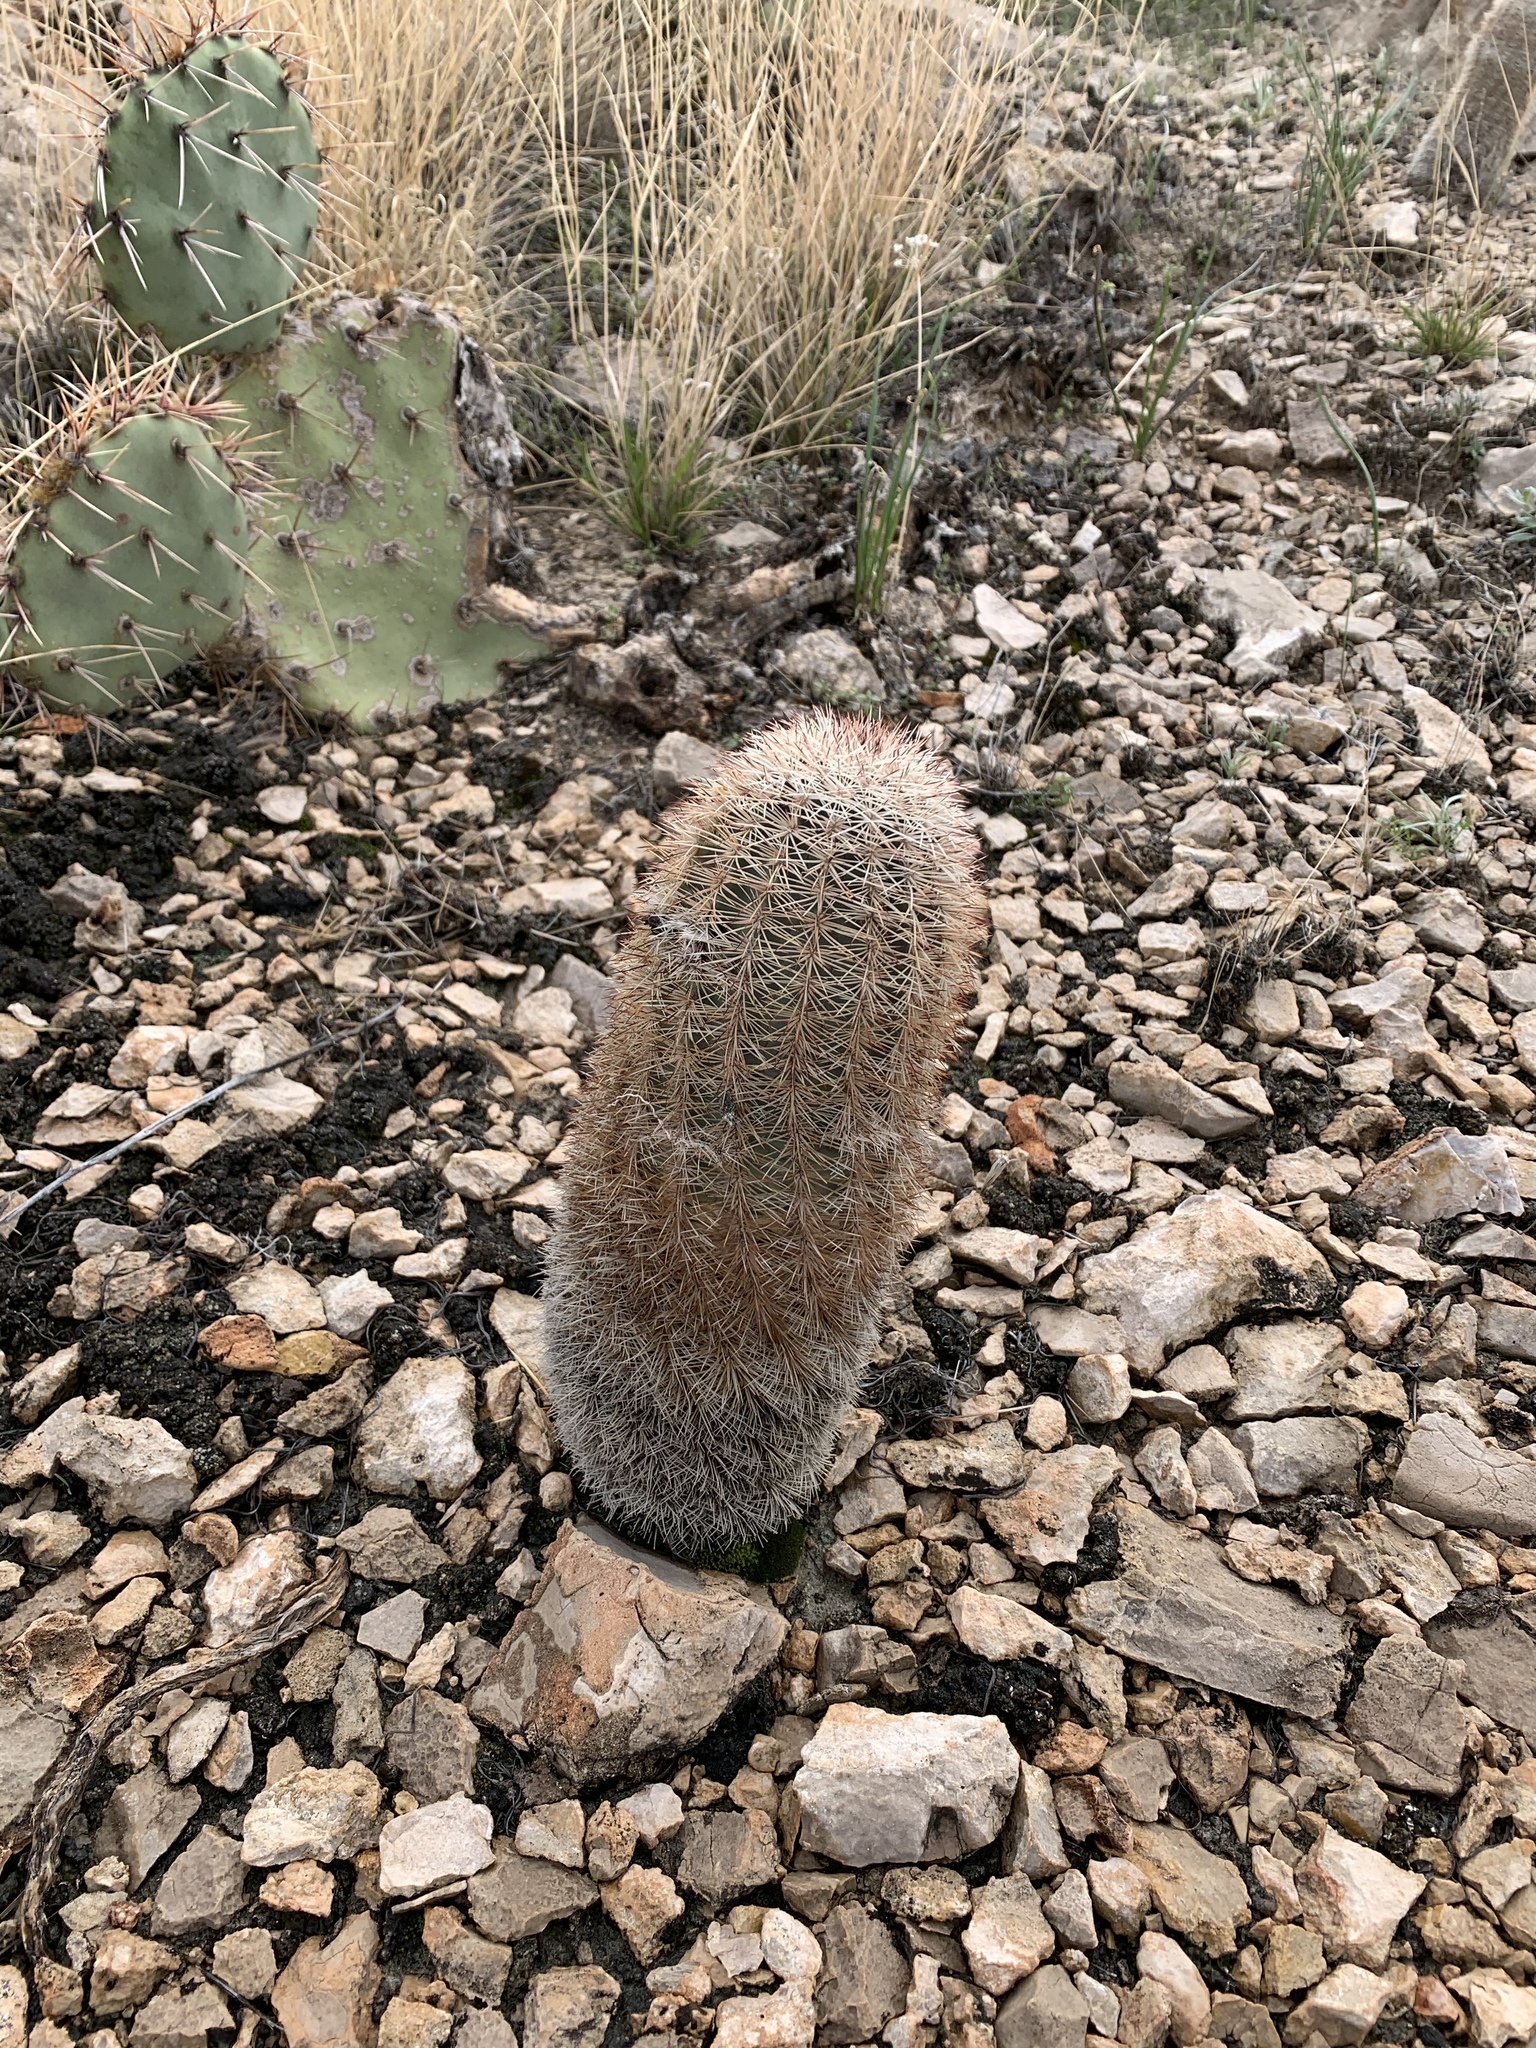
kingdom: Plantae
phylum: Tracheophyta
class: Magnoliopsida
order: Caryophyllales
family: Cactaceae
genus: Echinocereus
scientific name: Echinocereus dasyacanthus
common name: Spiny hedgehog cactus
